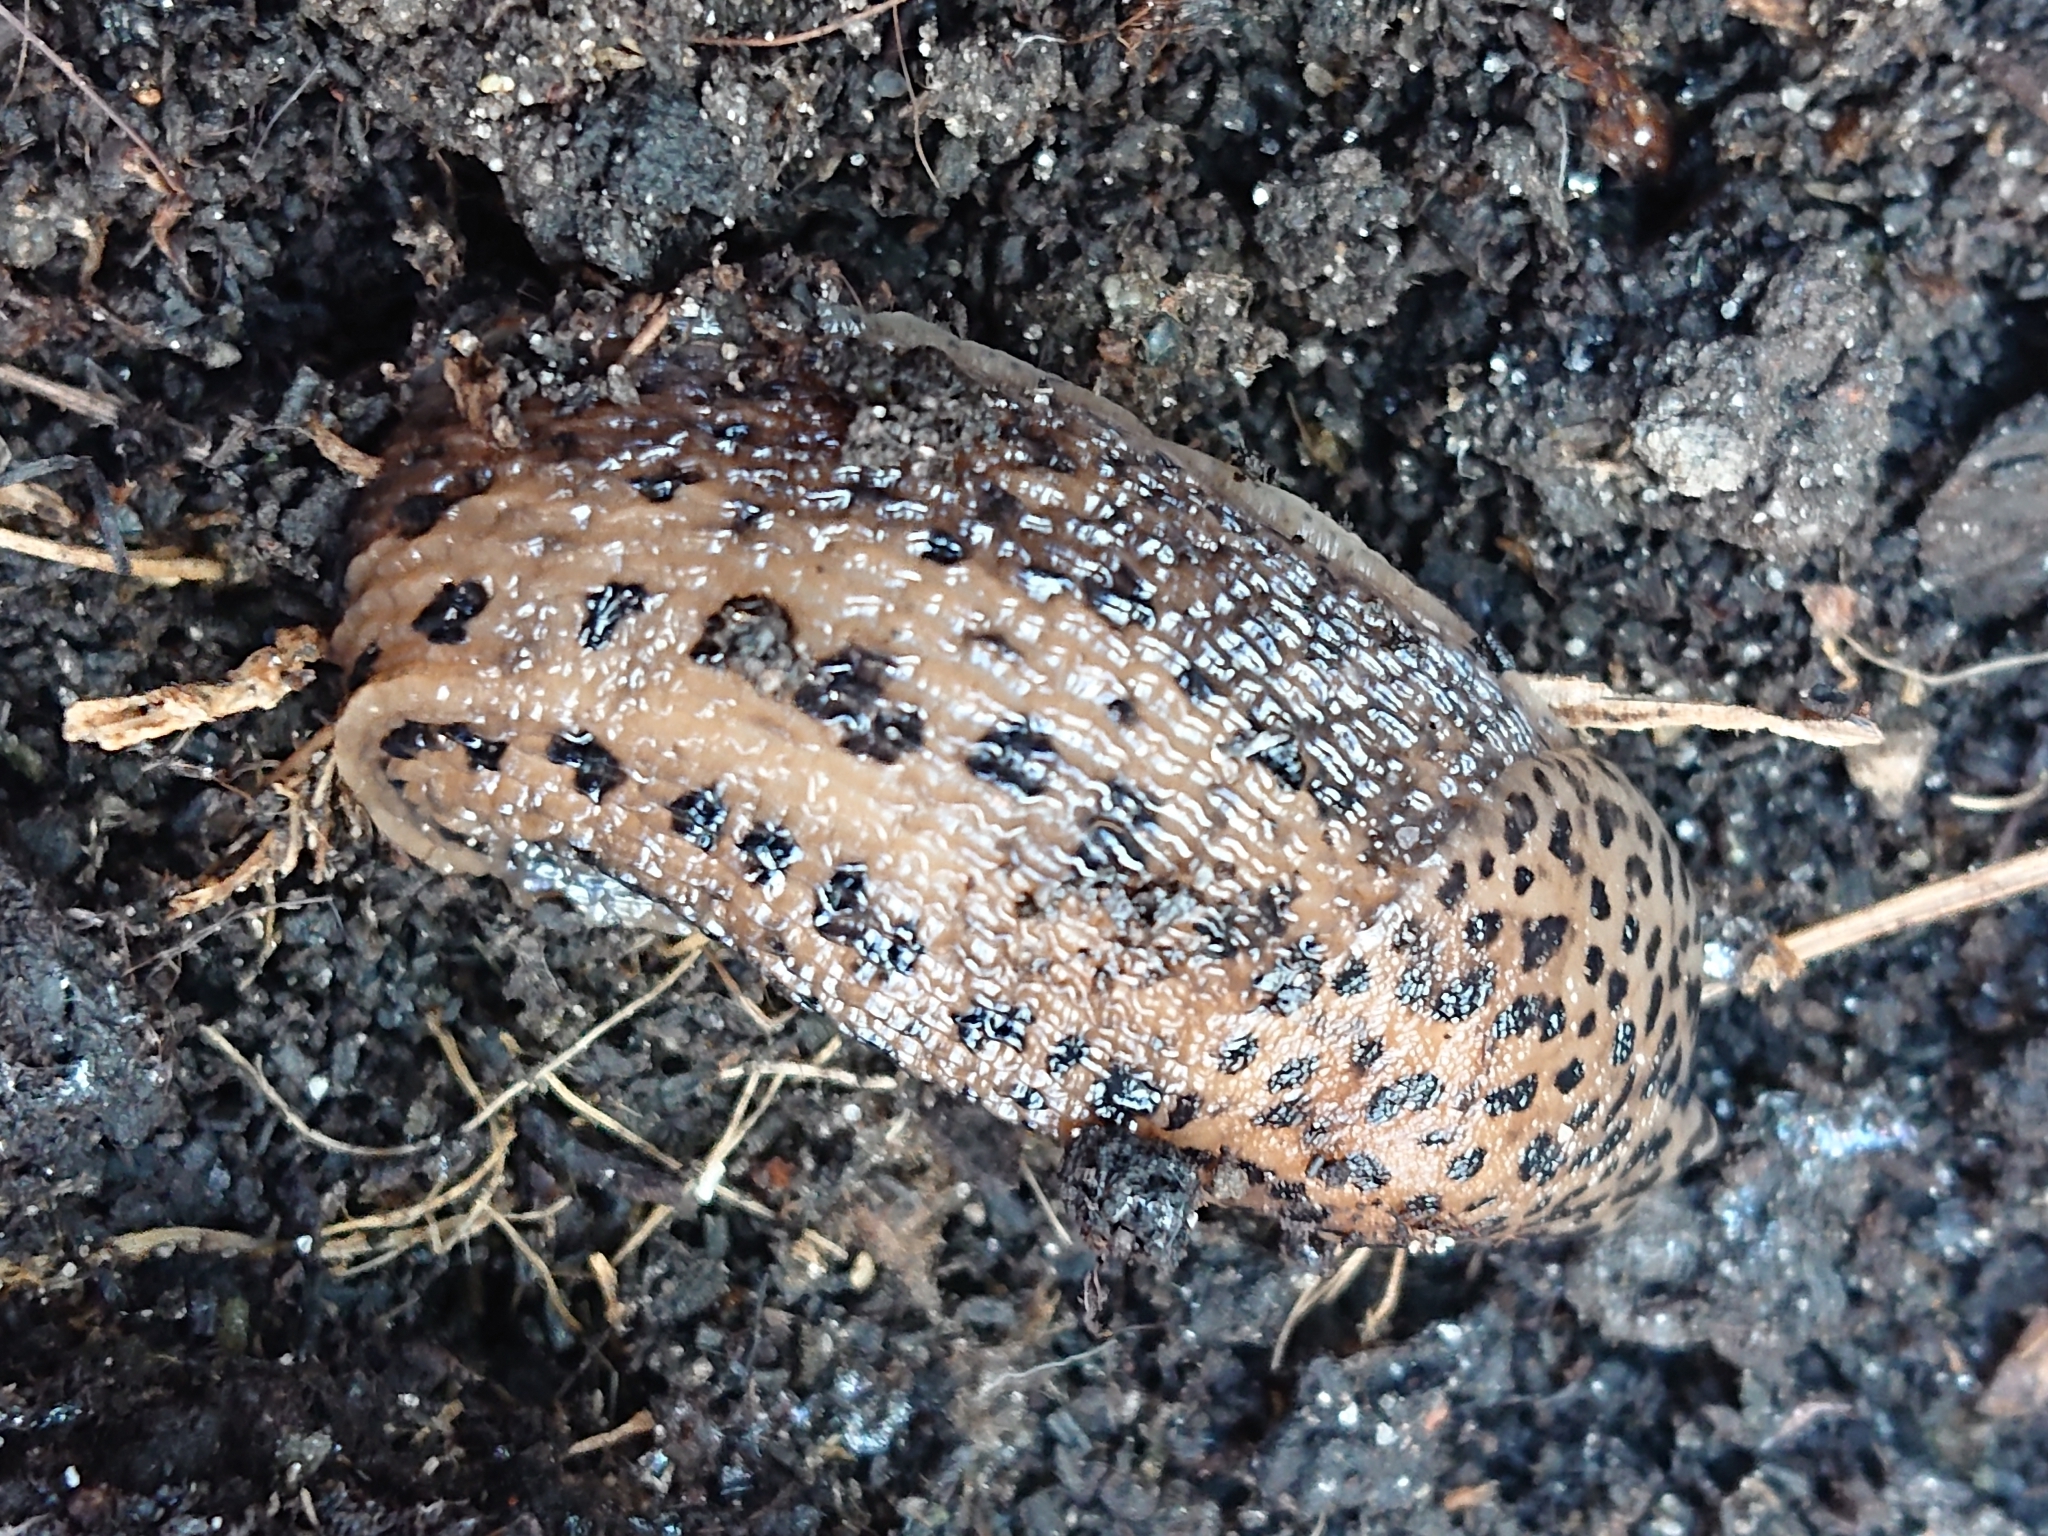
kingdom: Animalia
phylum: Mollusca
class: Gastropoda
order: Stylommatophora
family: Limacidae
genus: Limax
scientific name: Limax maximus
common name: Great grey slug
